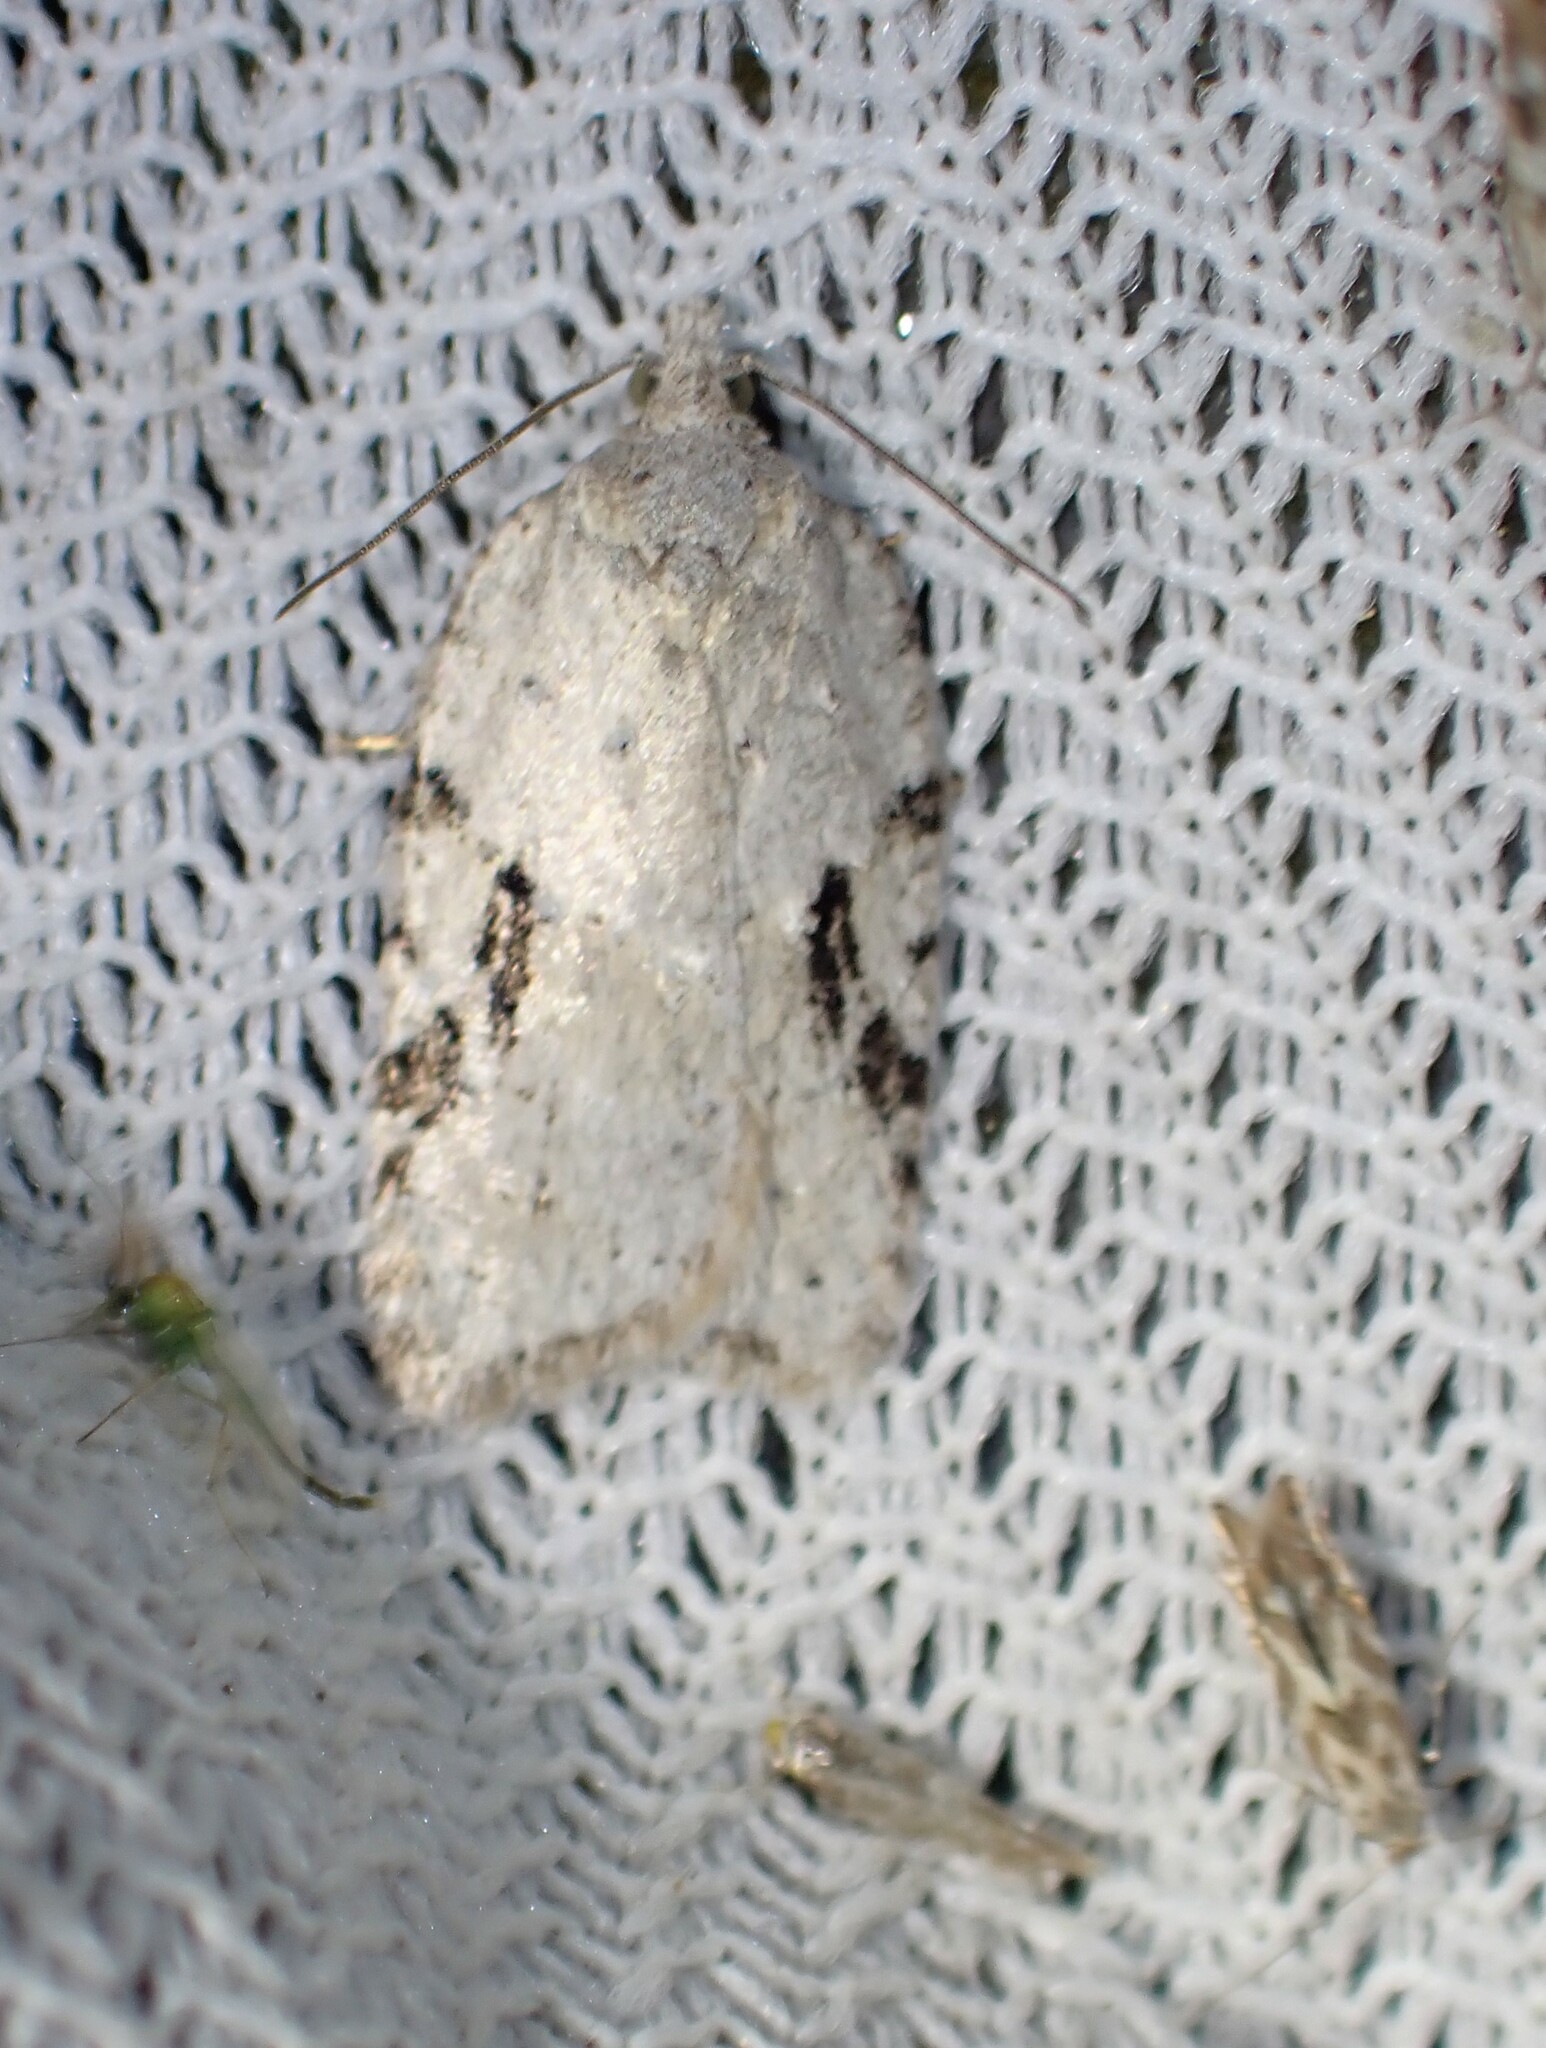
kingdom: Animalia
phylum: Arthropoda
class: Insecta
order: Lepidoptera
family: Tortricidae
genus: Acleris
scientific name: Acleris placidana
